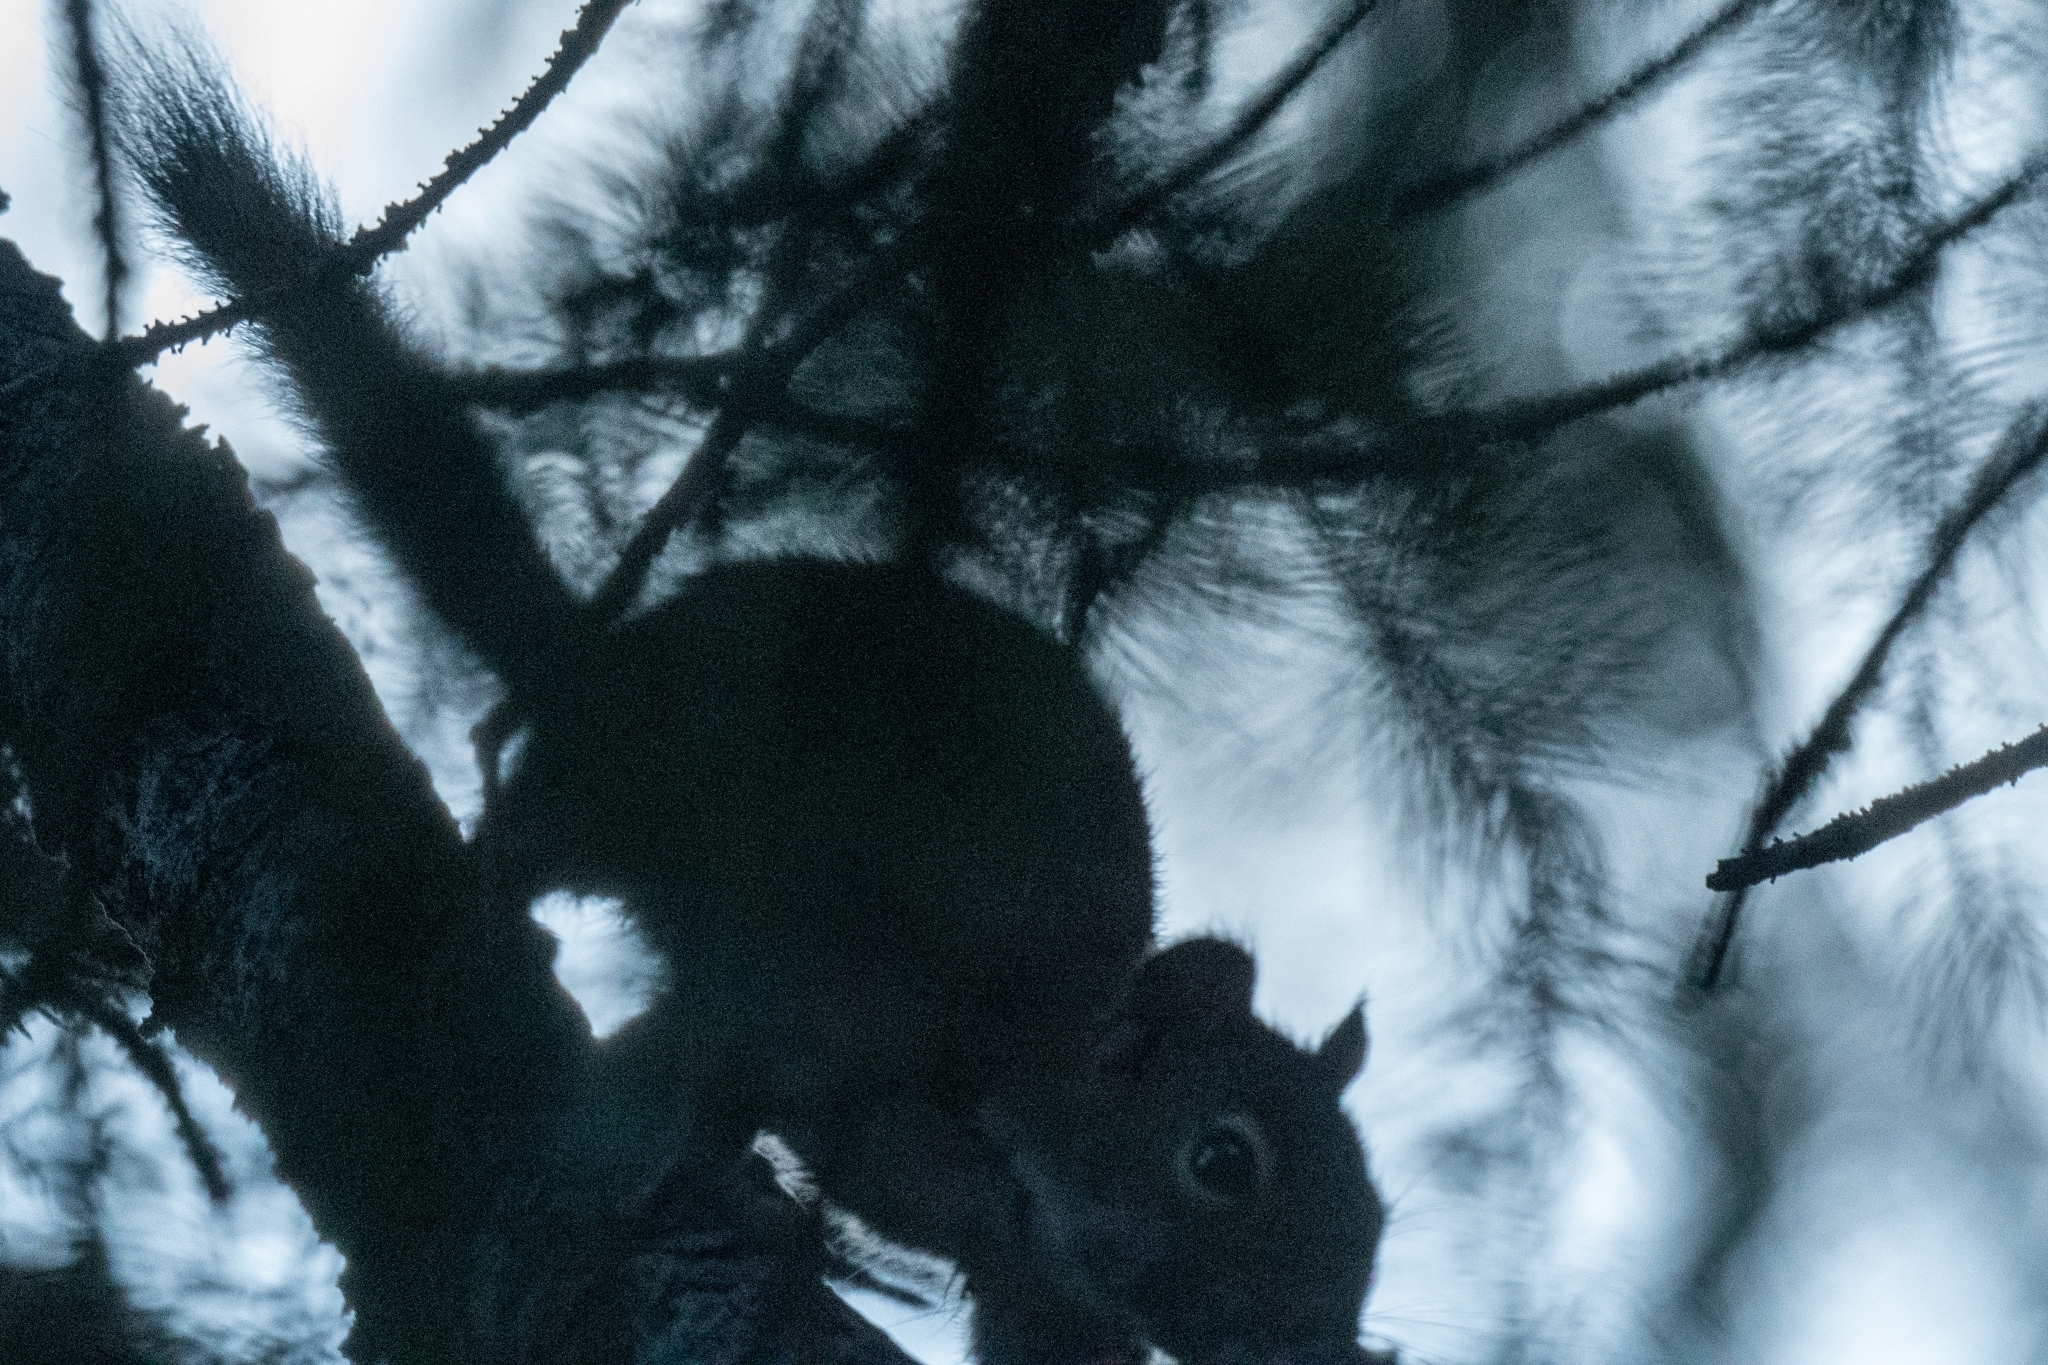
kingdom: Animalia
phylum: Chordata
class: Mammalia
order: Rodentia
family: Sciuridae
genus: Tamiasciurus
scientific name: Tamiasciurus hudsonicus
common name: Red squirrel
